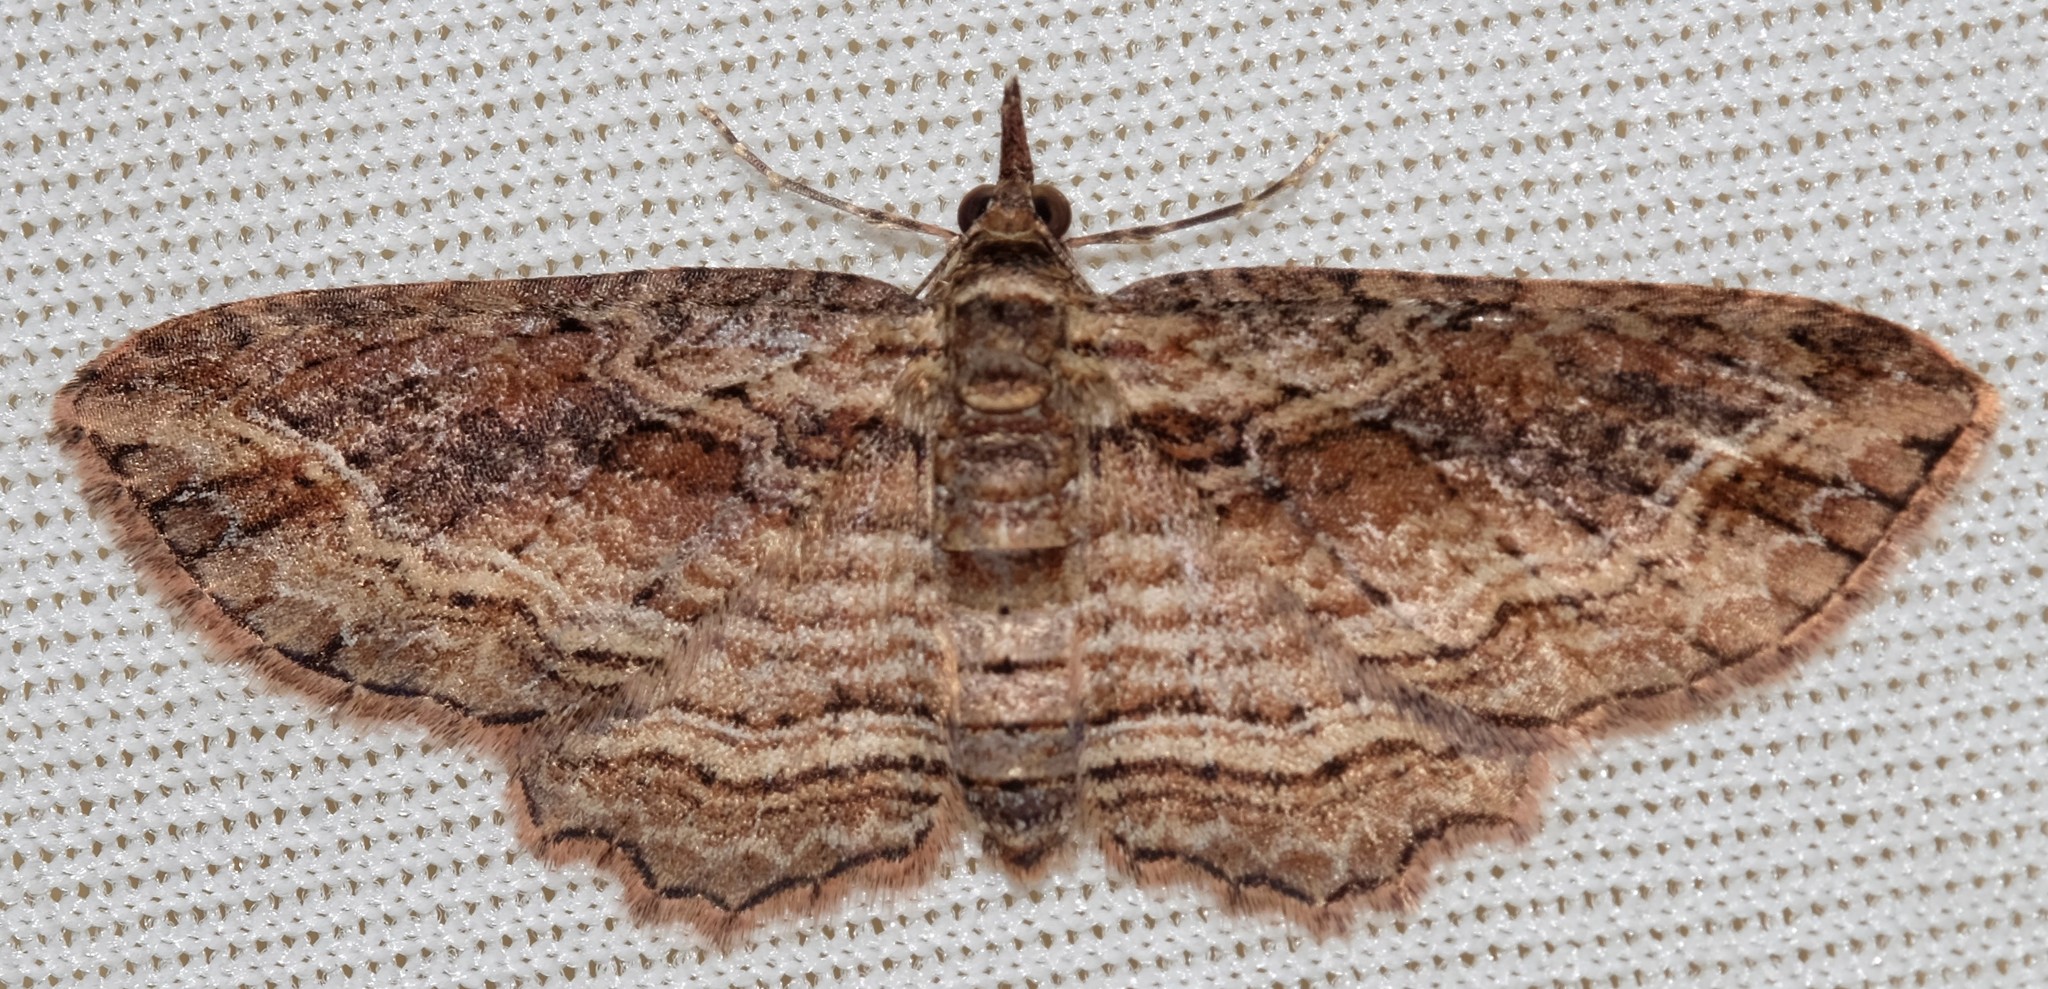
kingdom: Animalia
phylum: Arthropoda
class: Insecta
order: Lepidoptera
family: Geometridae
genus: Chloroclystis
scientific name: Chloroclystis filata
